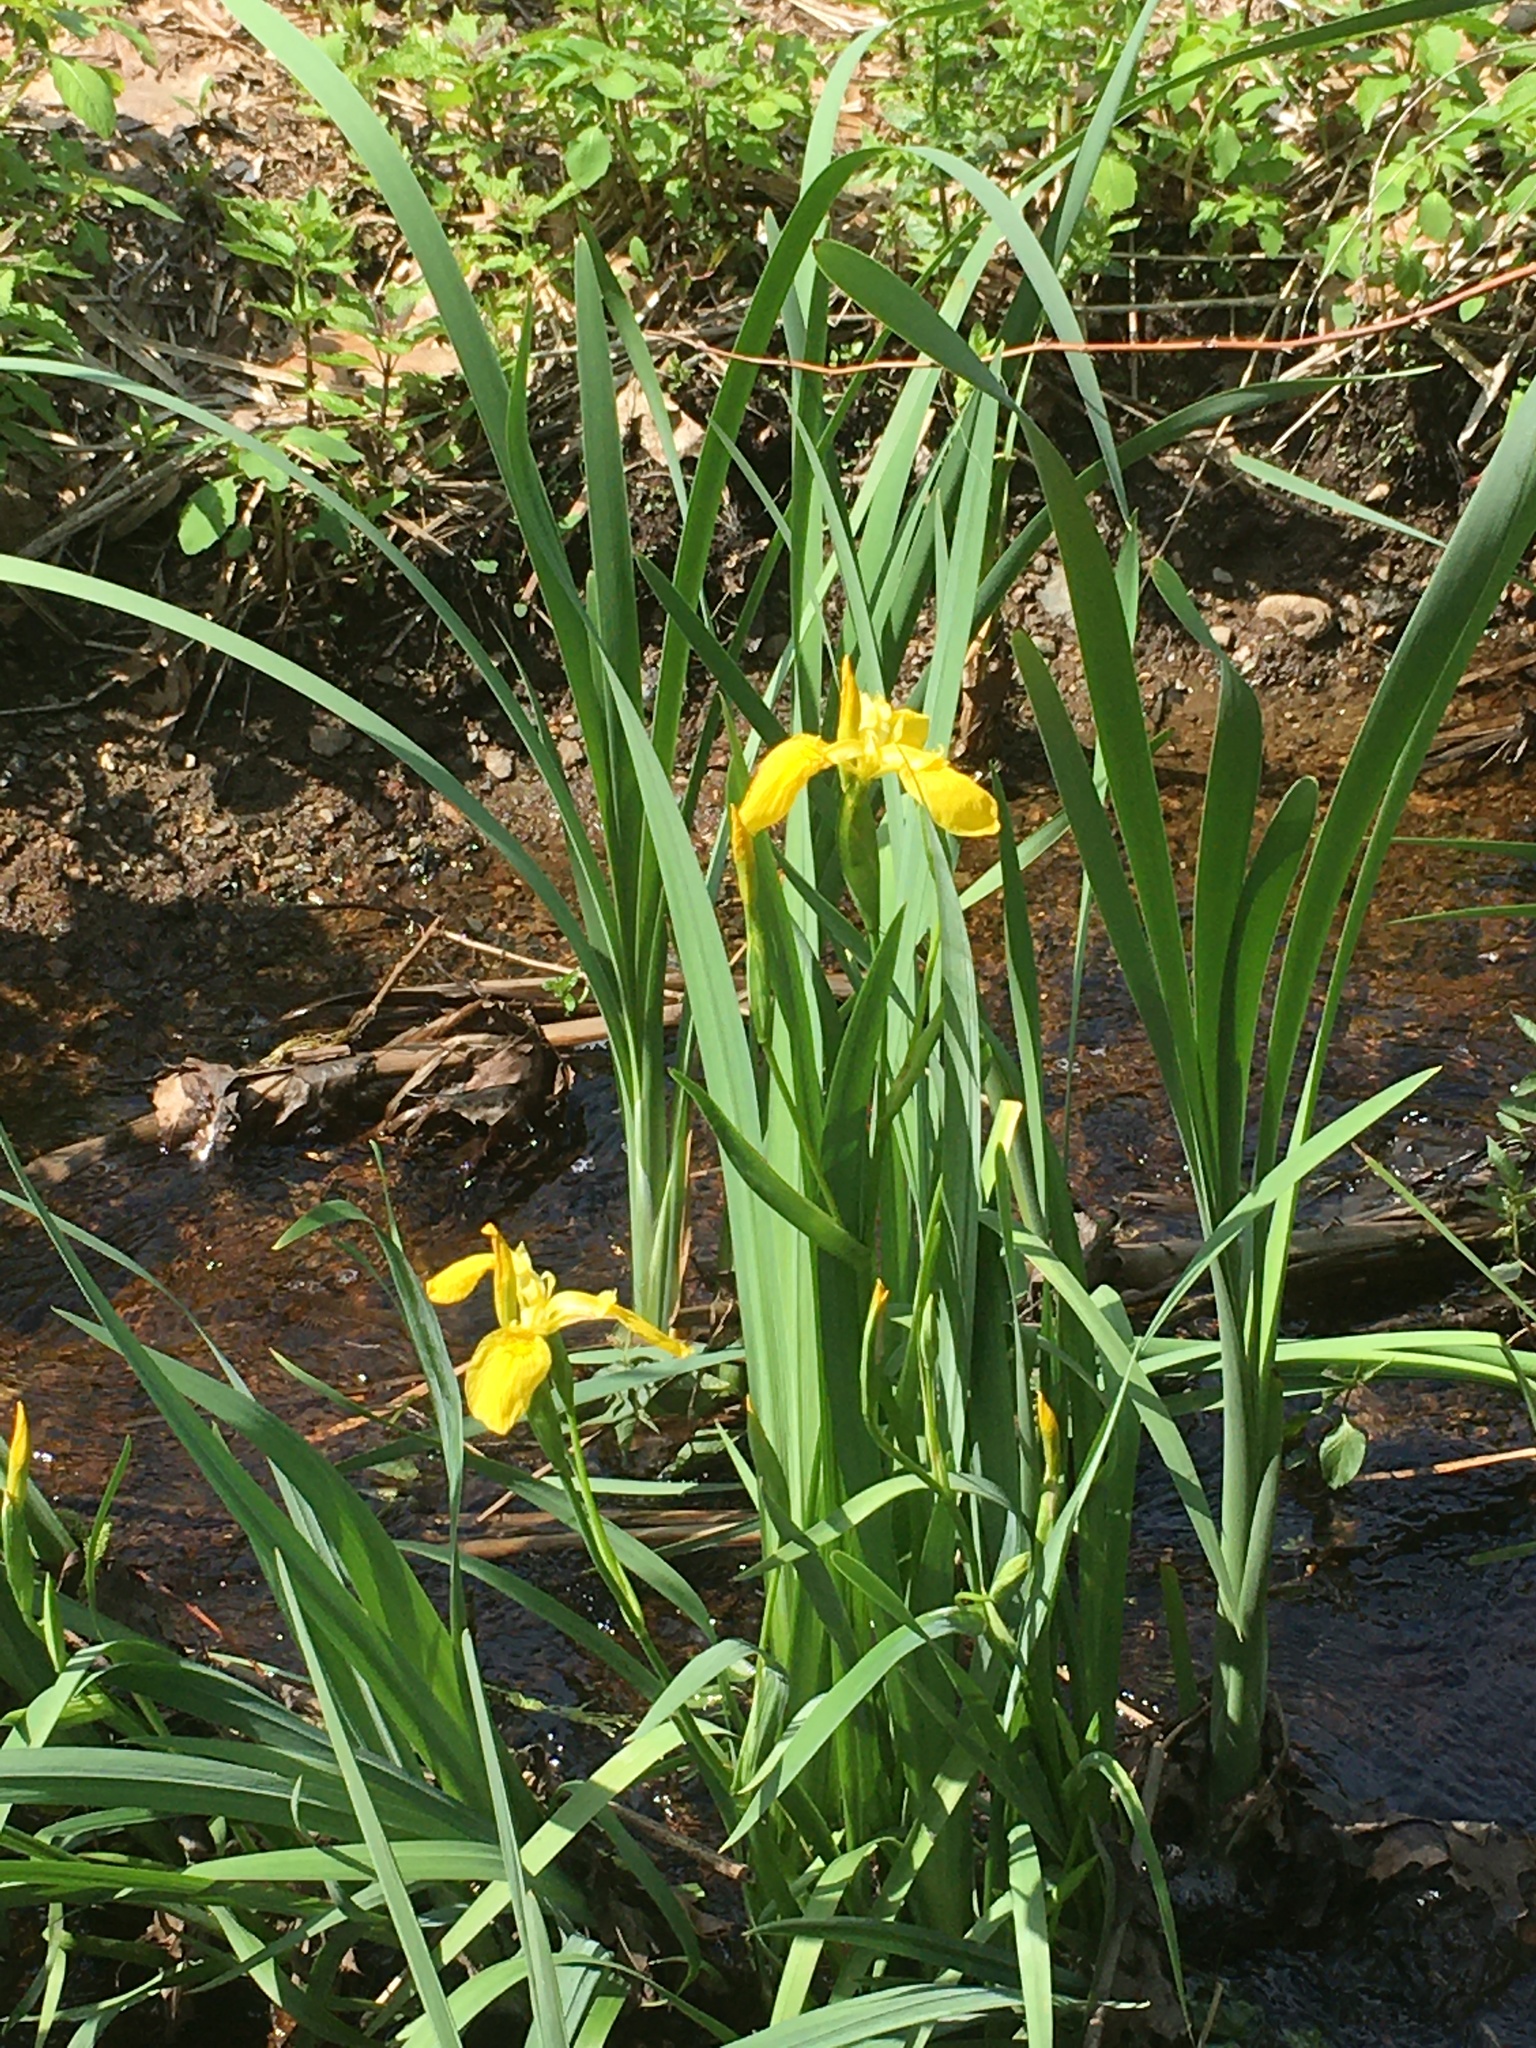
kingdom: Plantae
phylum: Tracheophyta
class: Liliopsida
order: Asparagales
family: Iridaceae
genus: Iris
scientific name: Iris pseudacorus
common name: Yellow flag
